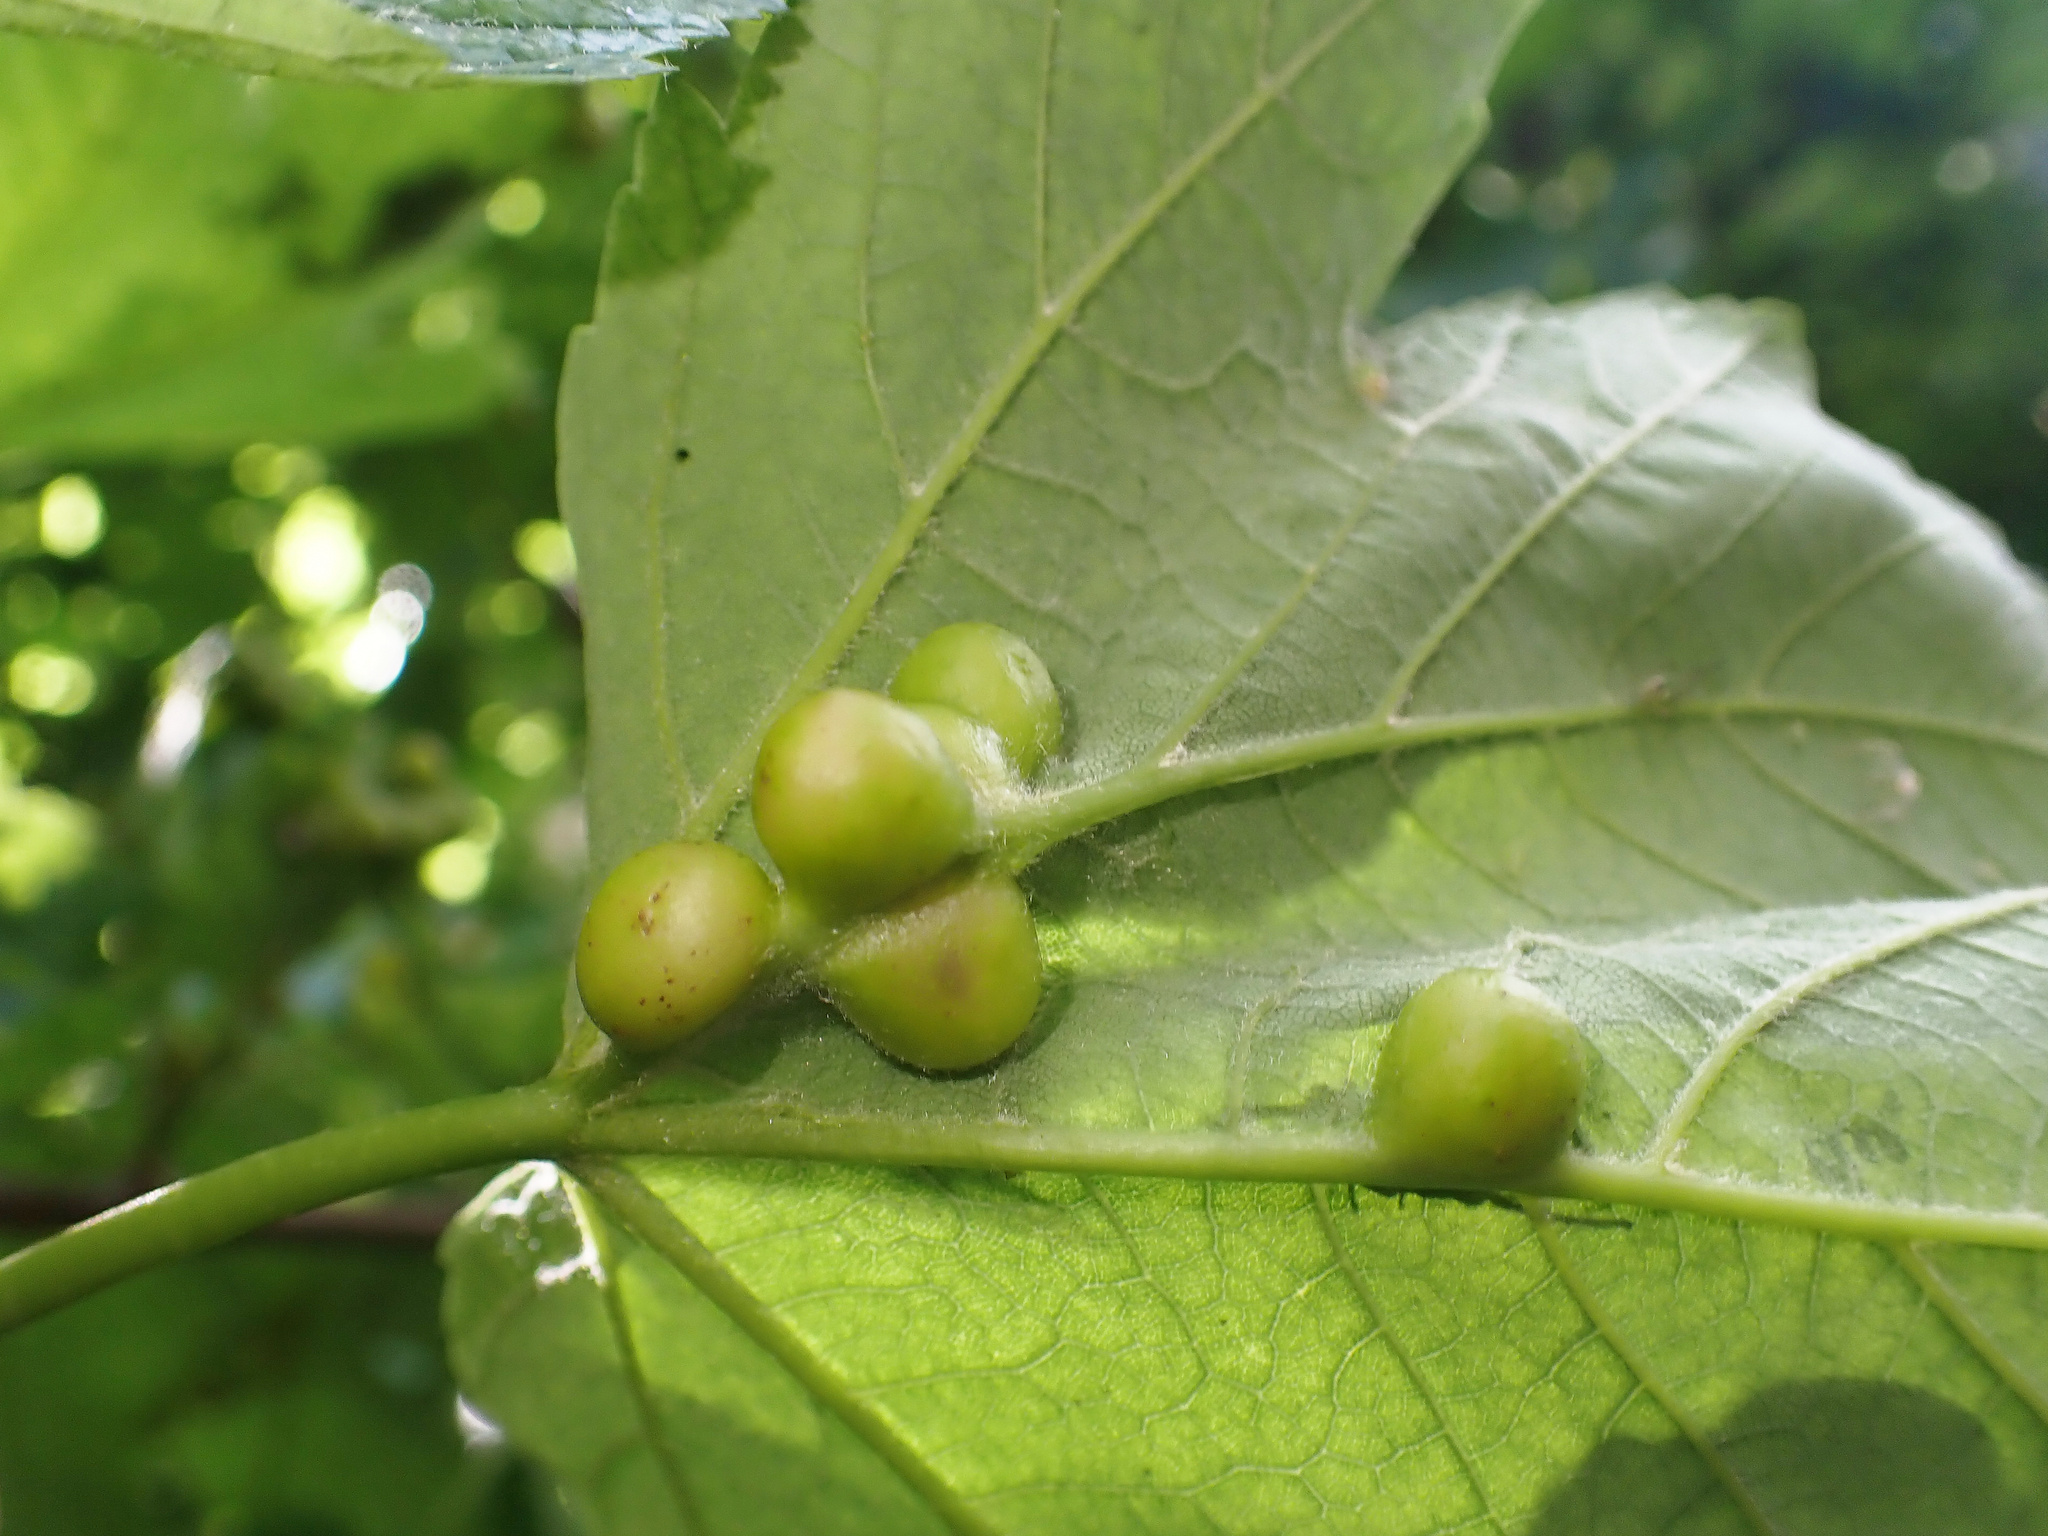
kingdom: Animalia
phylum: Arthropoda
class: Insecta
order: Hymenoptera
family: Cynipidae
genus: Pediaspis
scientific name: Pediaspis aceris
